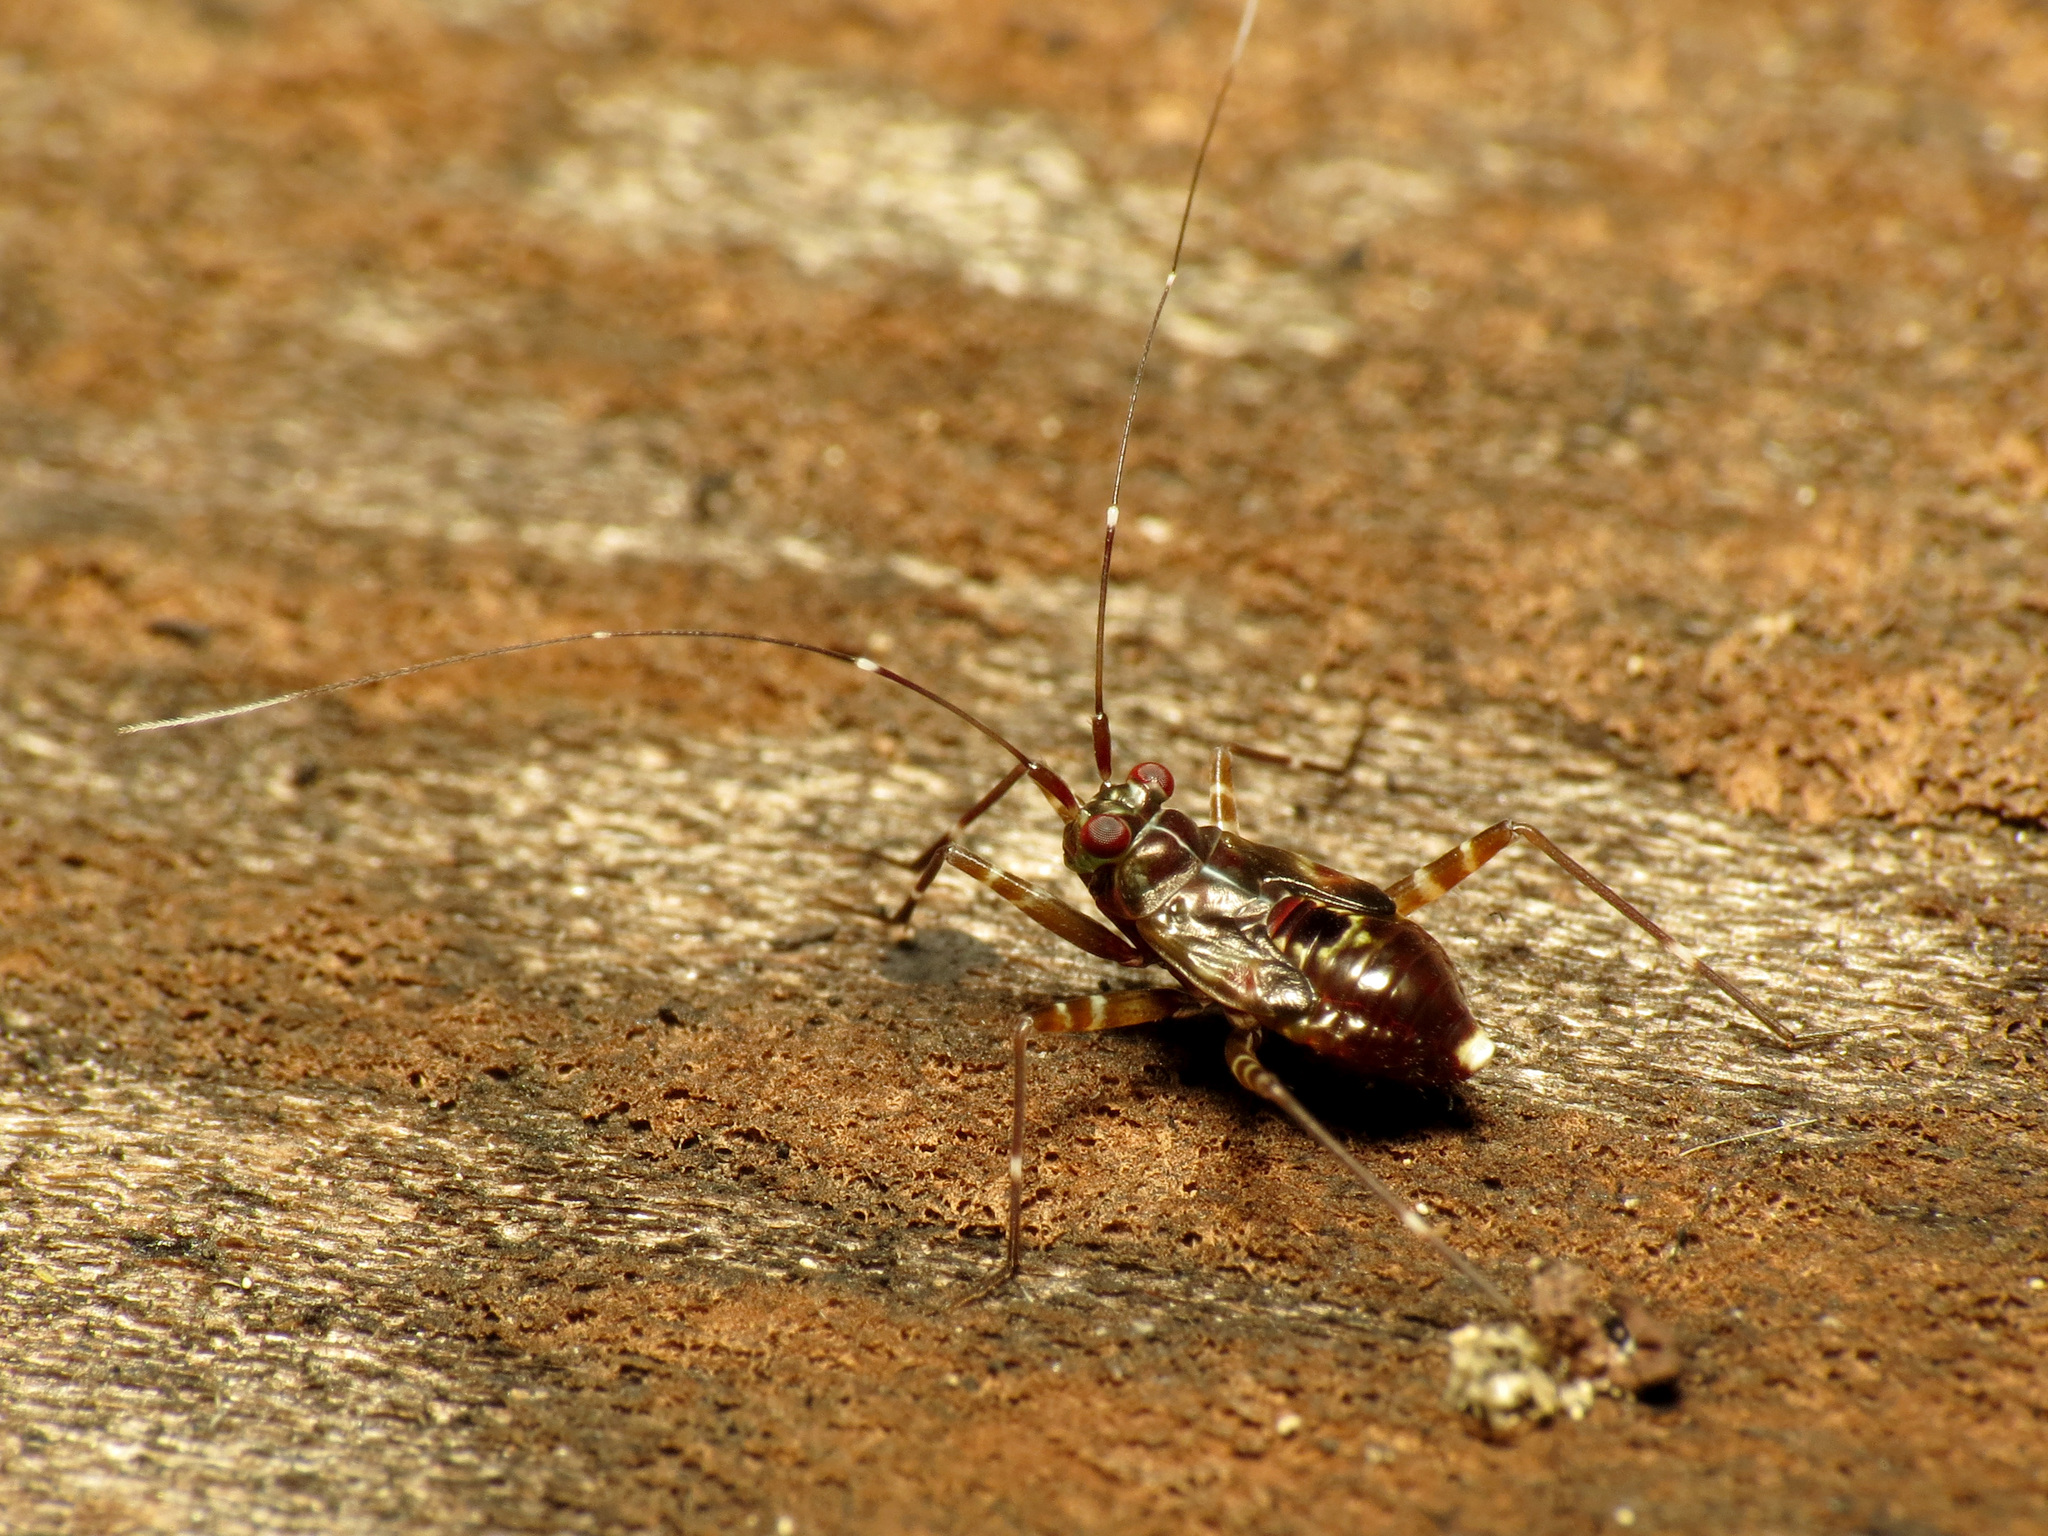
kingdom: Animalia
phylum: Arthropoda
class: Insecta
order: Hemiptera
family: Miridae
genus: Cylapus
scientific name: Cylapus tenuicornis
